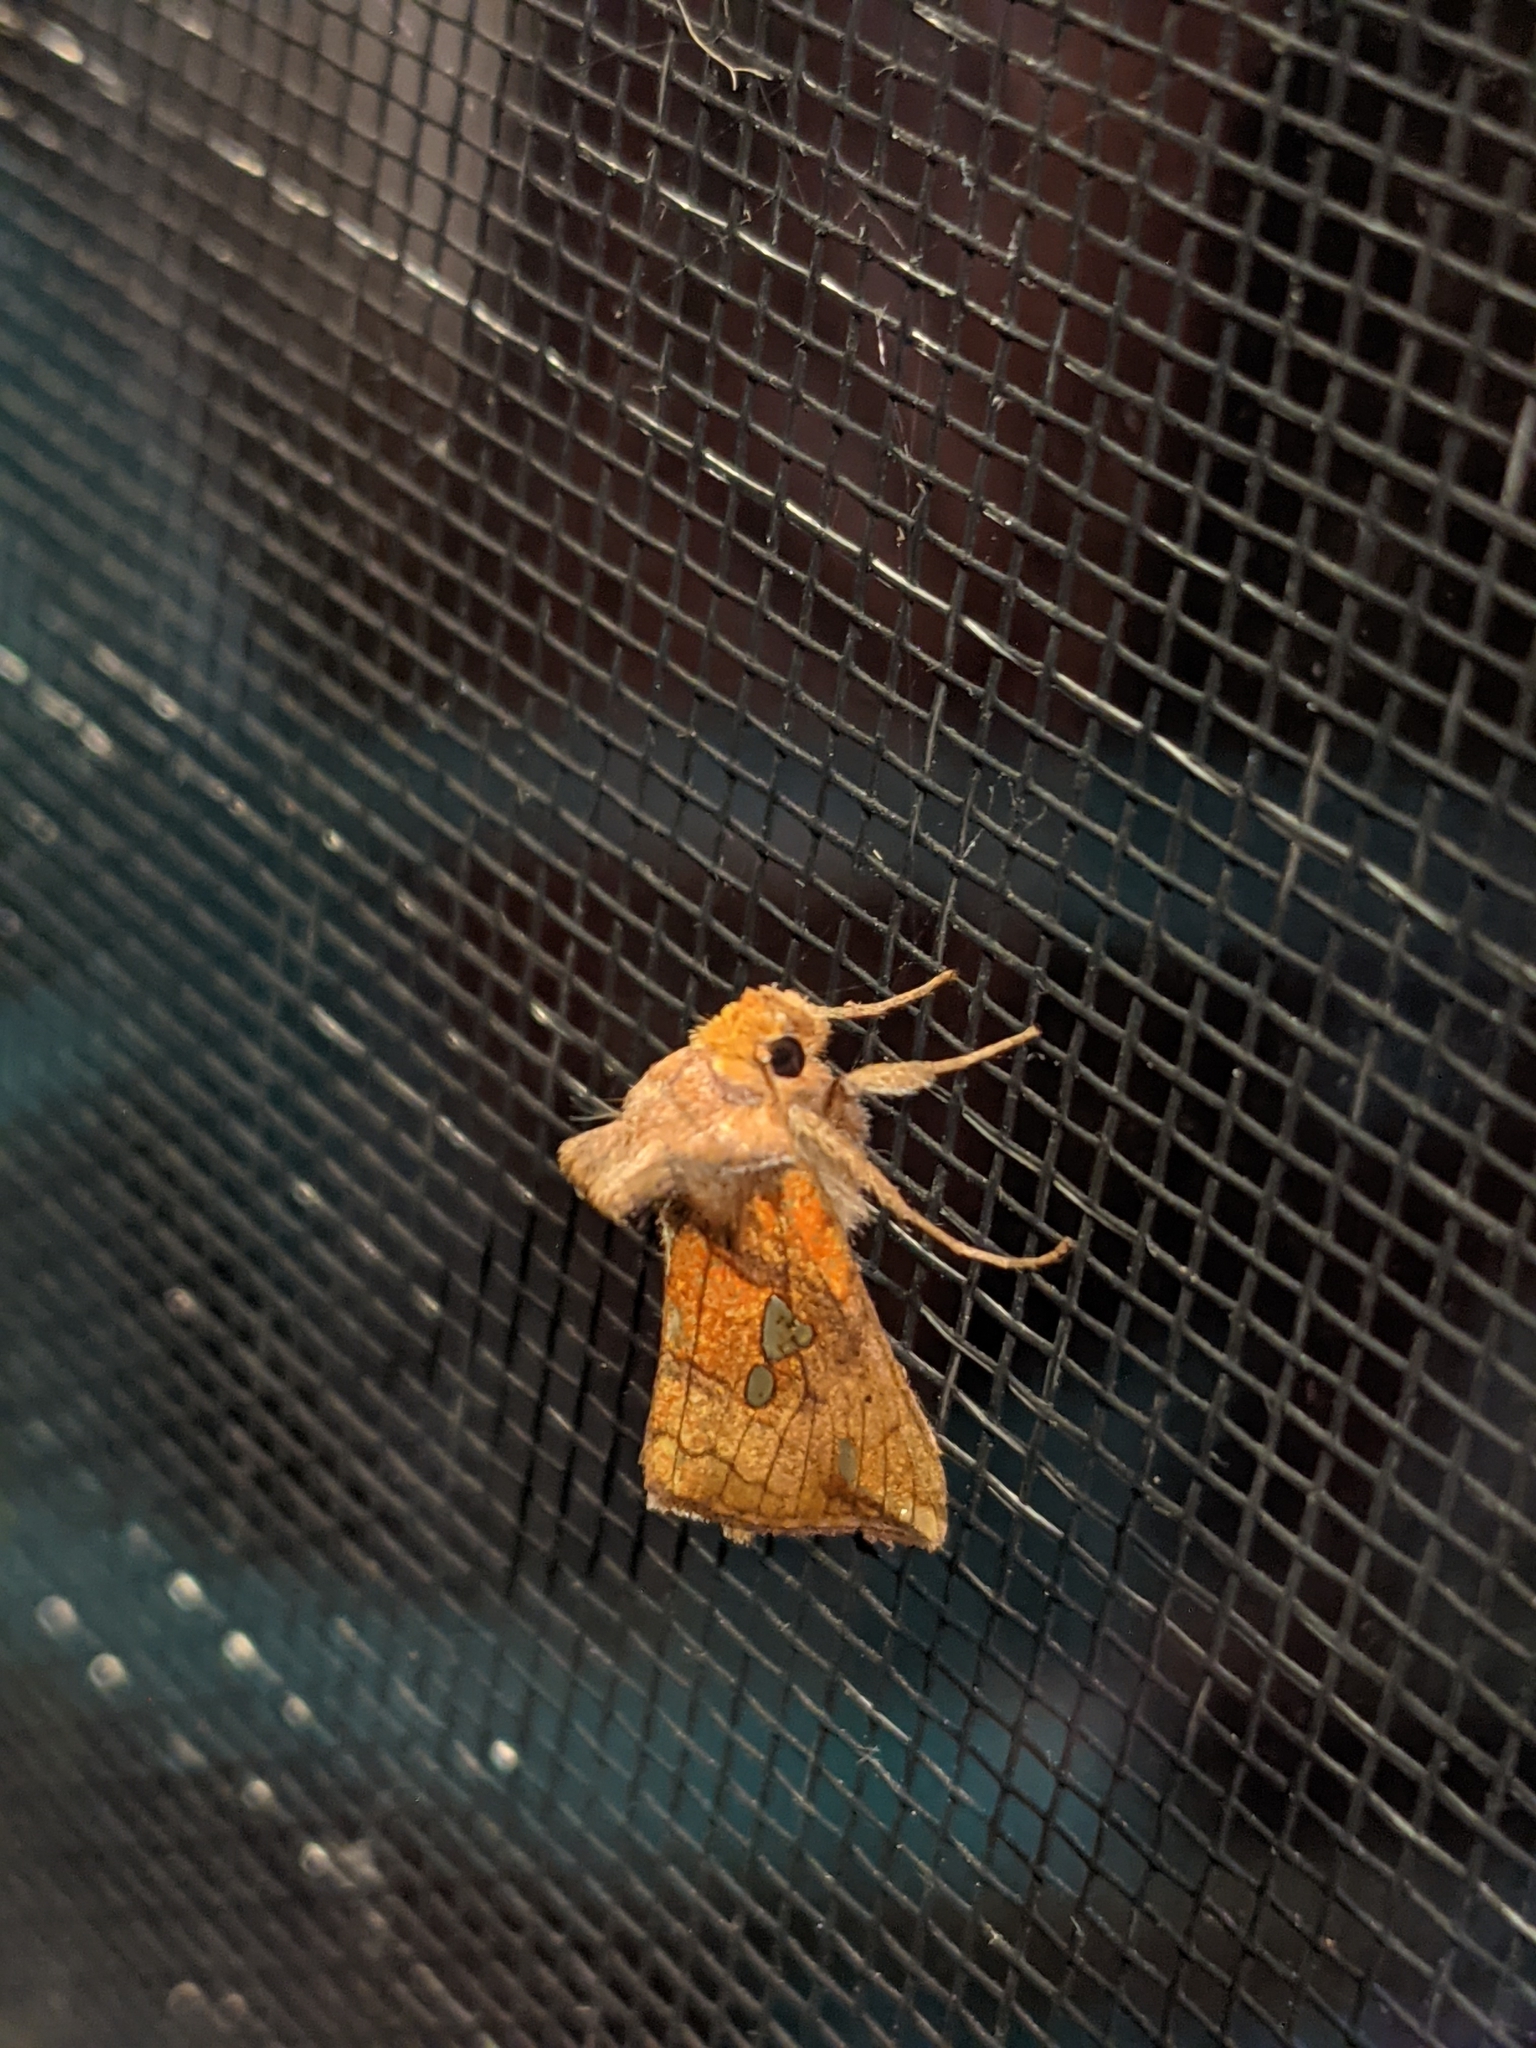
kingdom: Animalia
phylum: Arthropoda
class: Insecta
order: Lepidoptera
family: Noctuidae
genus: Plusia
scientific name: Plusia putnami
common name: Lempke's gold spot
